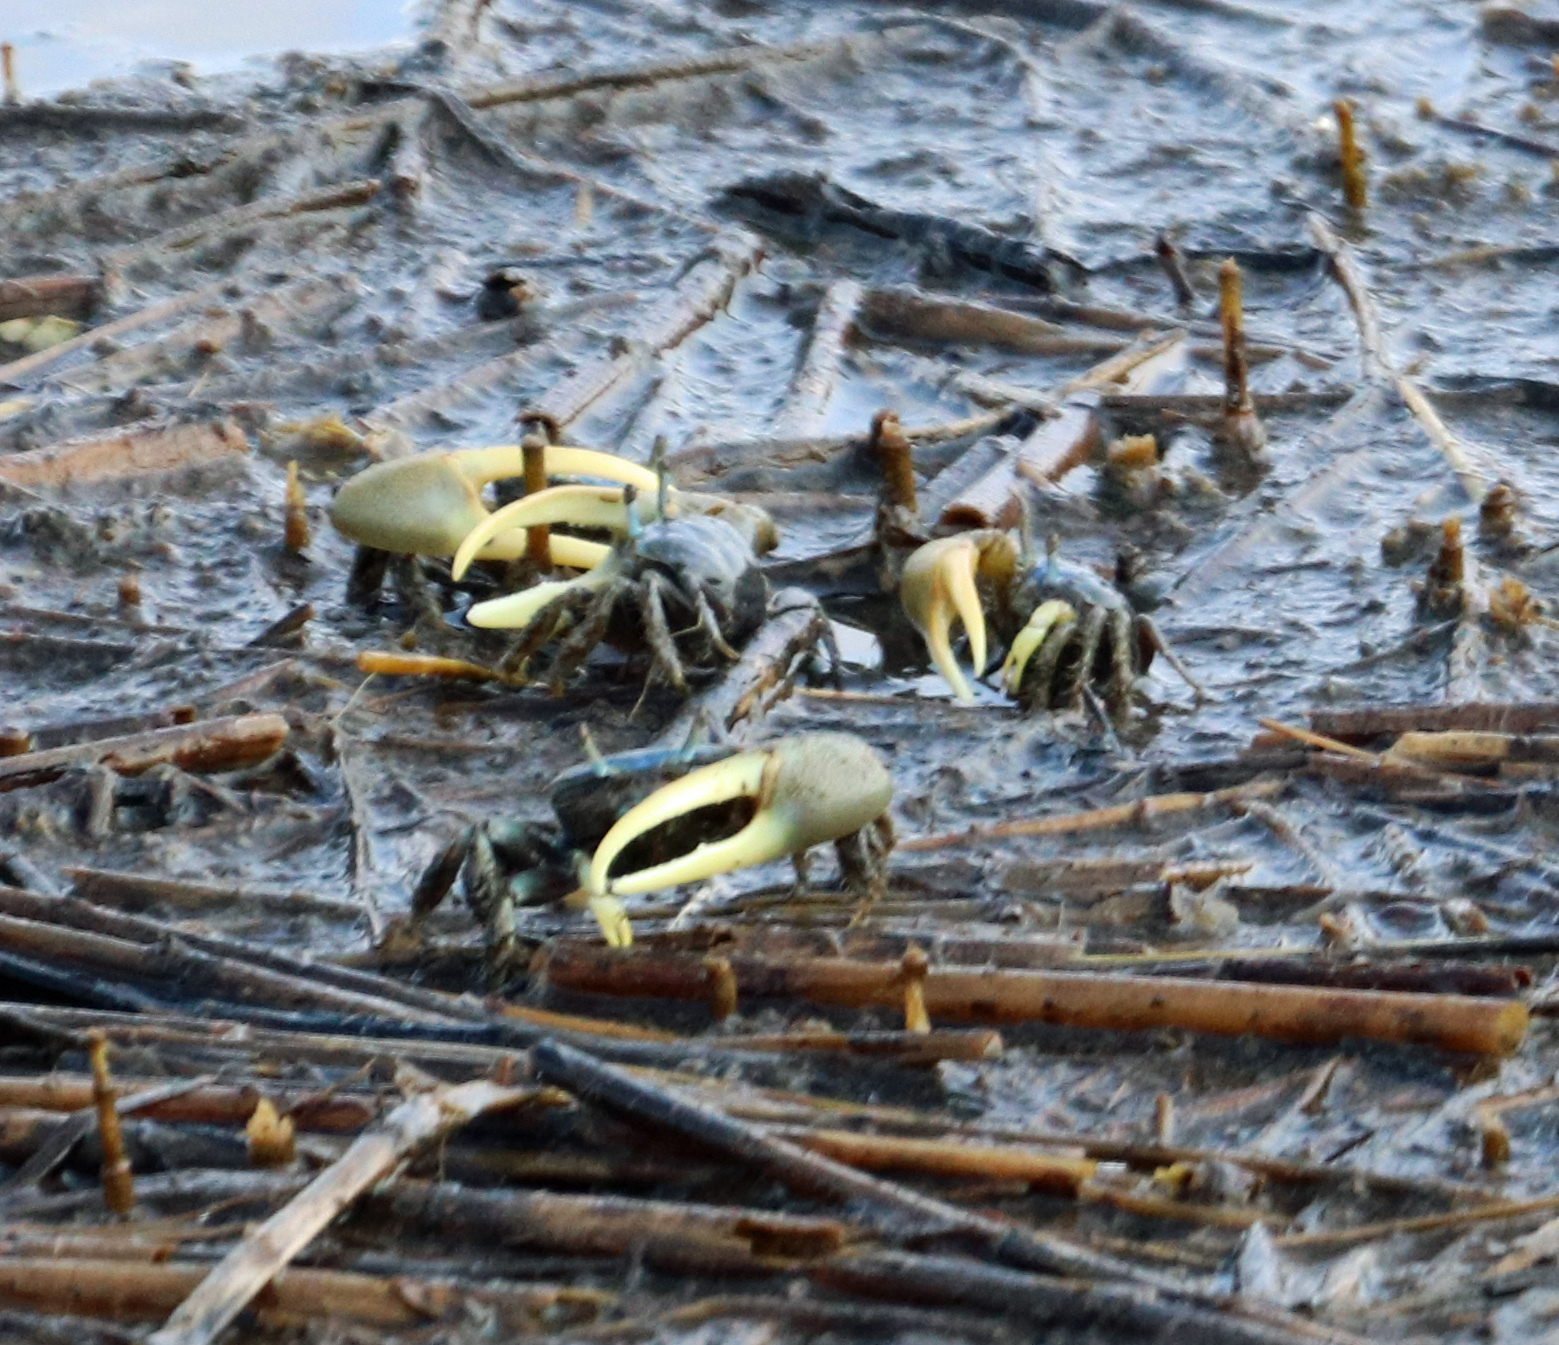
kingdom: Animalia
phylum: Arthropoda
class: Malacostraca
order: Decapoda
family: Ocypodidae
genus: Minuca
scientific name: Minuca pugnax
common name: Mud fiddler crab
